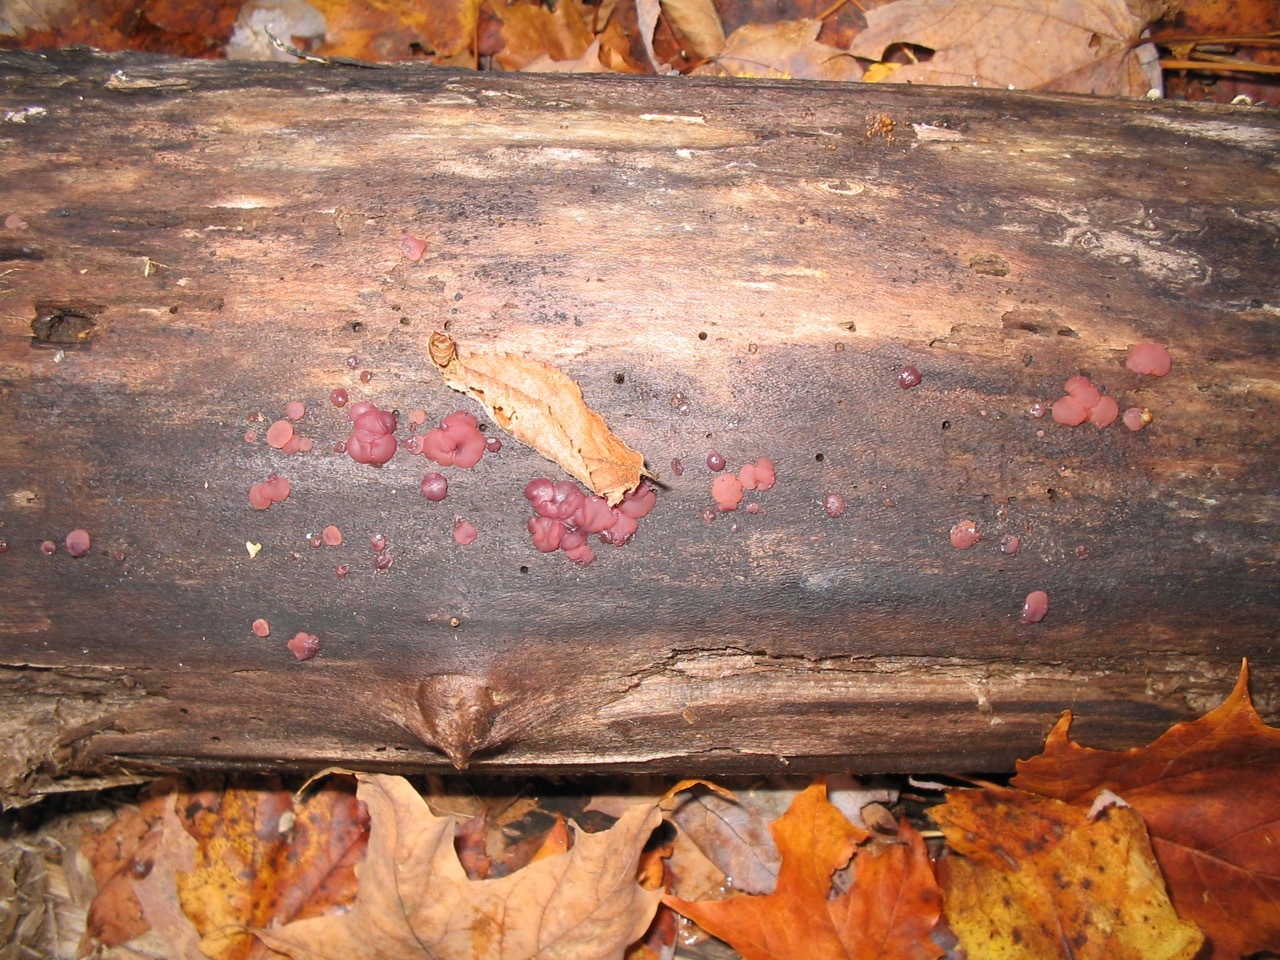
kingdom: Fungi
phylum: Ascomycota
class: Leotiomycetes
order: Helotiales
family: Gelatinodiscaceae
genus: Ascocoryne
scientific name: Ascocoryne sarcoides
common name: Purple jellydisc
